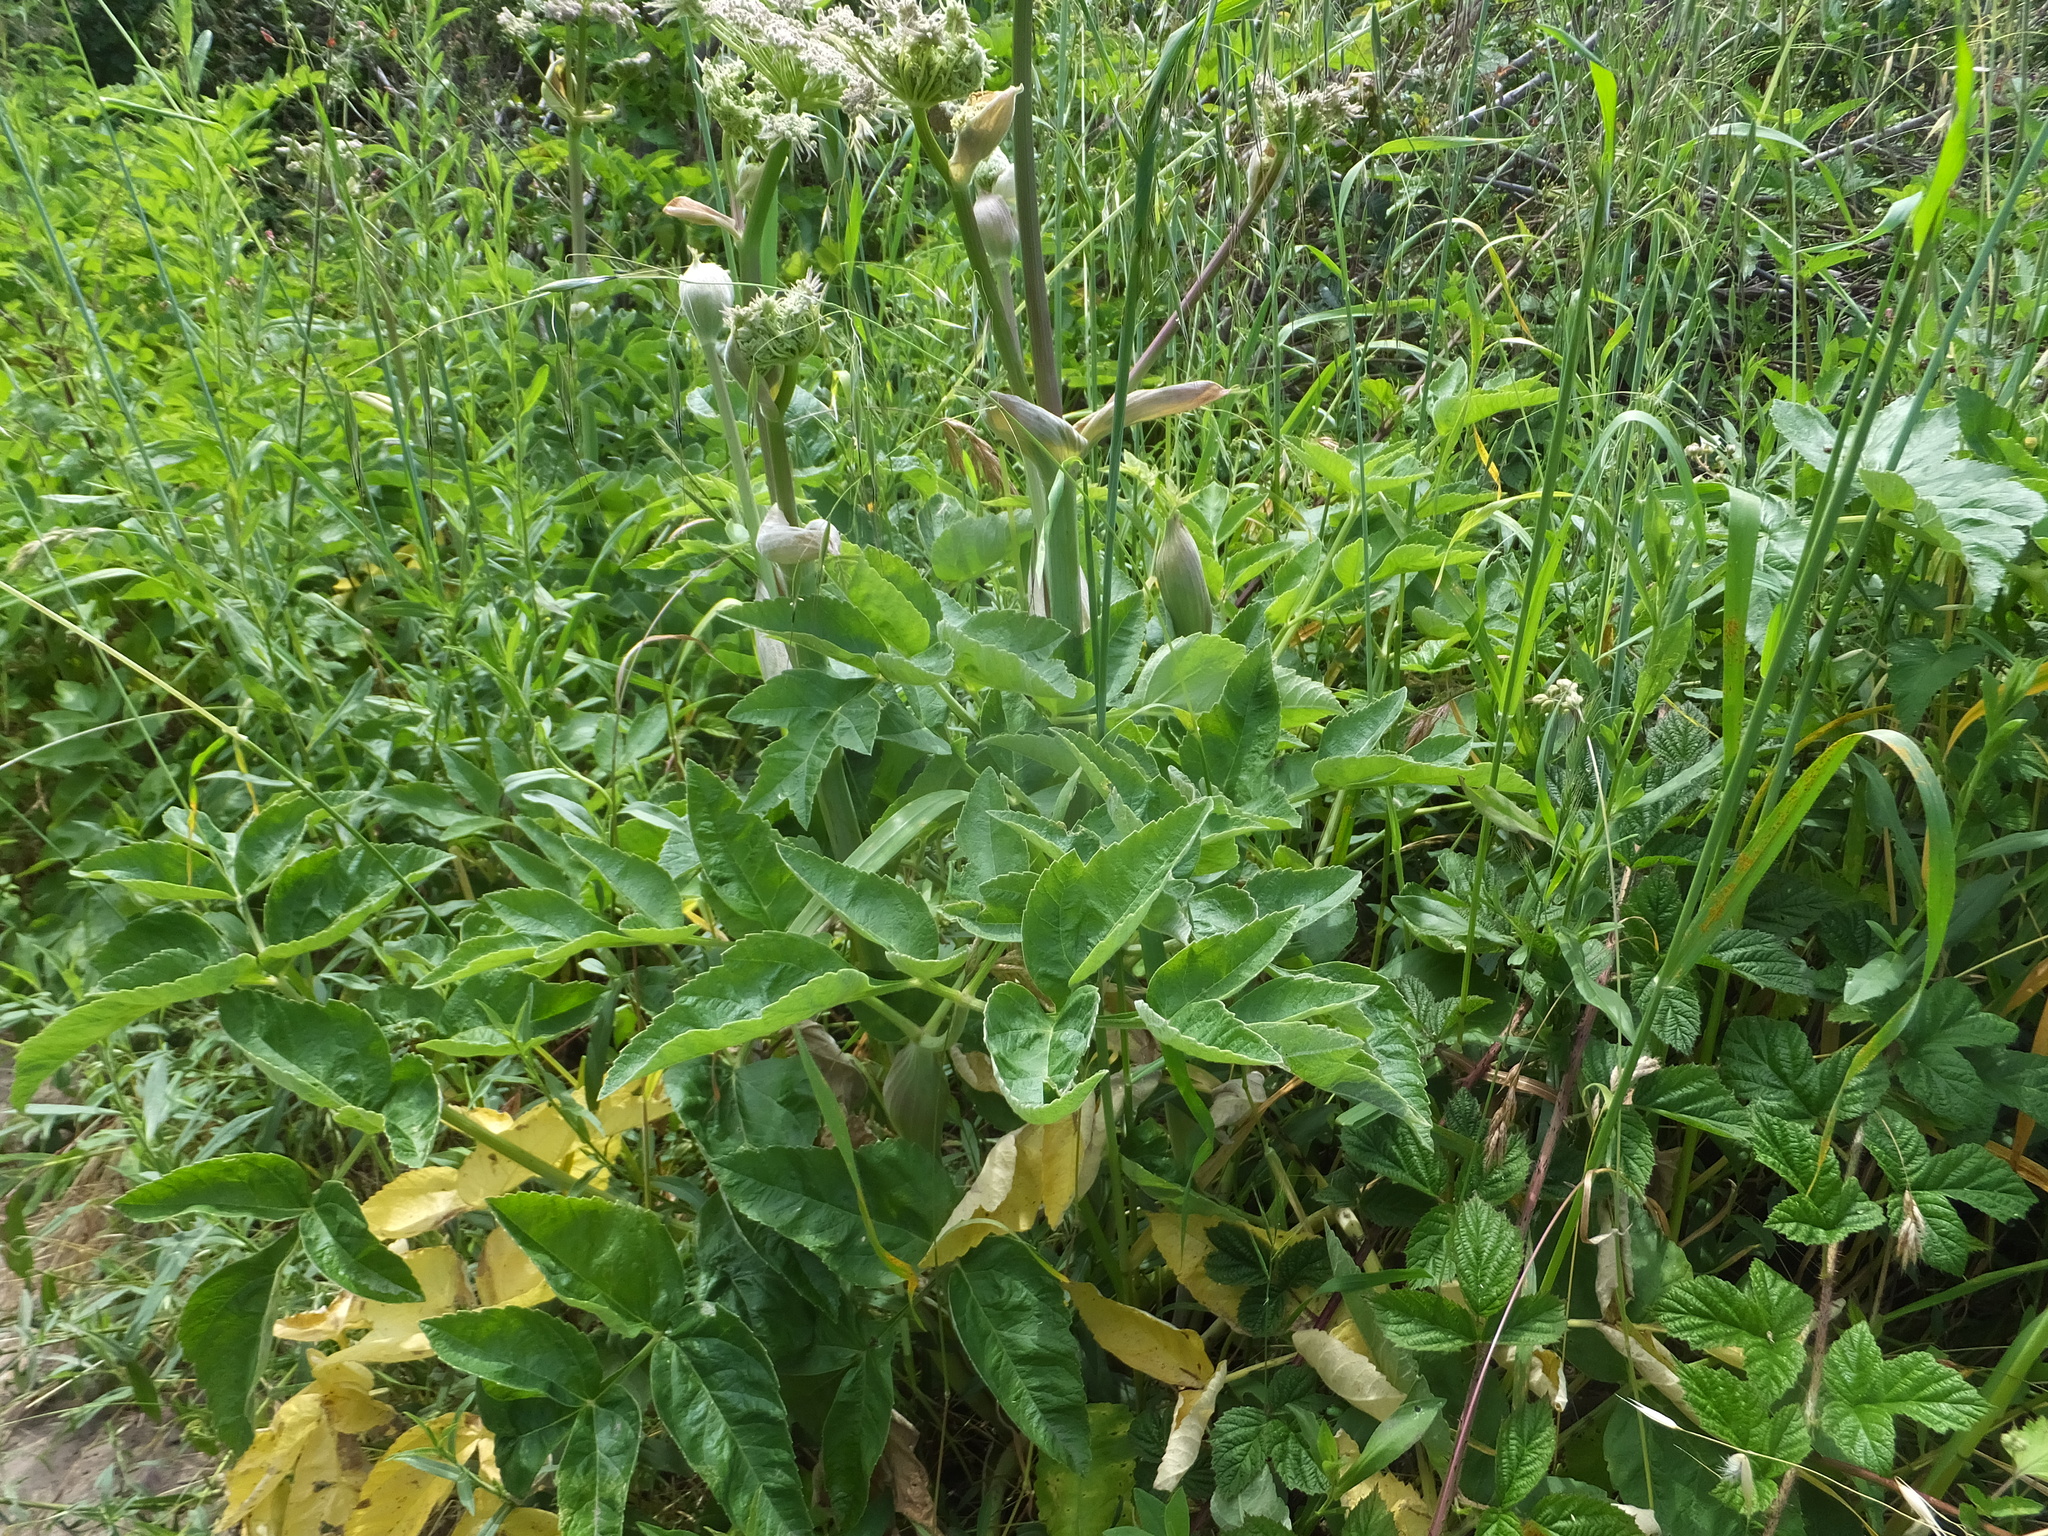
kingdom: Plantae
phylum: Tracheophyta
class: Magnoliopsida
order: Apiales
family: Apiaceae
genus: Angelica
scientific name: Angelica hendersonii
